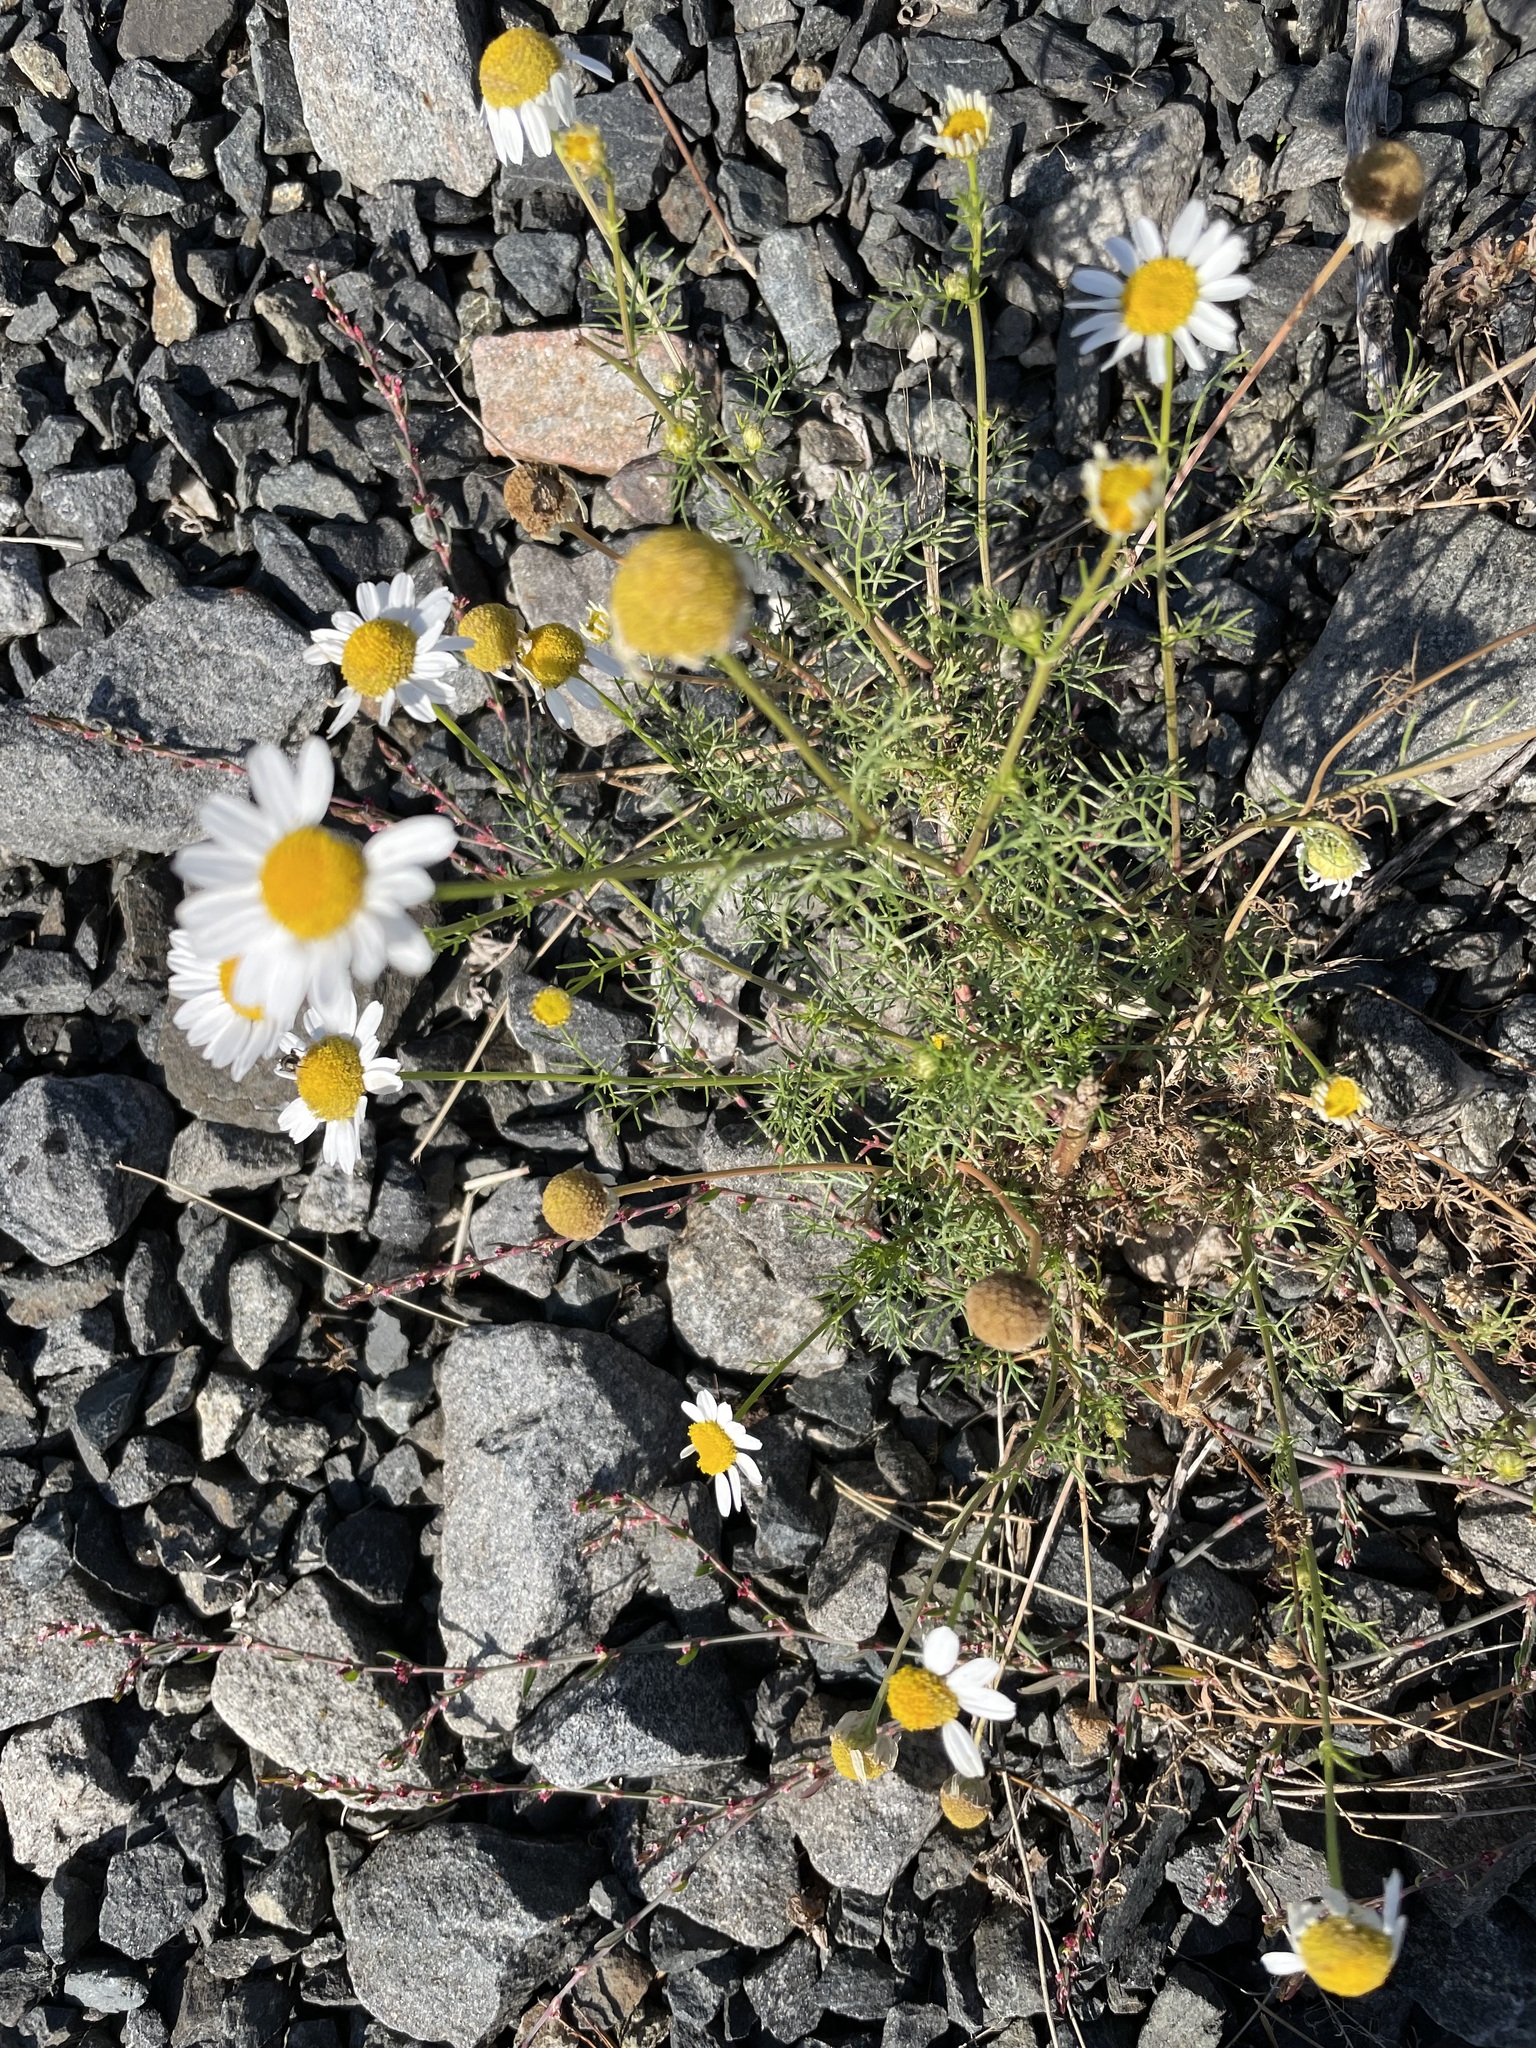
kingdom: Plantae
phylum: Tracheophyta
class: Magnoliopsida
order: Asterales
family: Asteraceae
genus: Tripleurospermum
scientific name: Tripleurospermum inodorum
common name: Scentless mayweed
